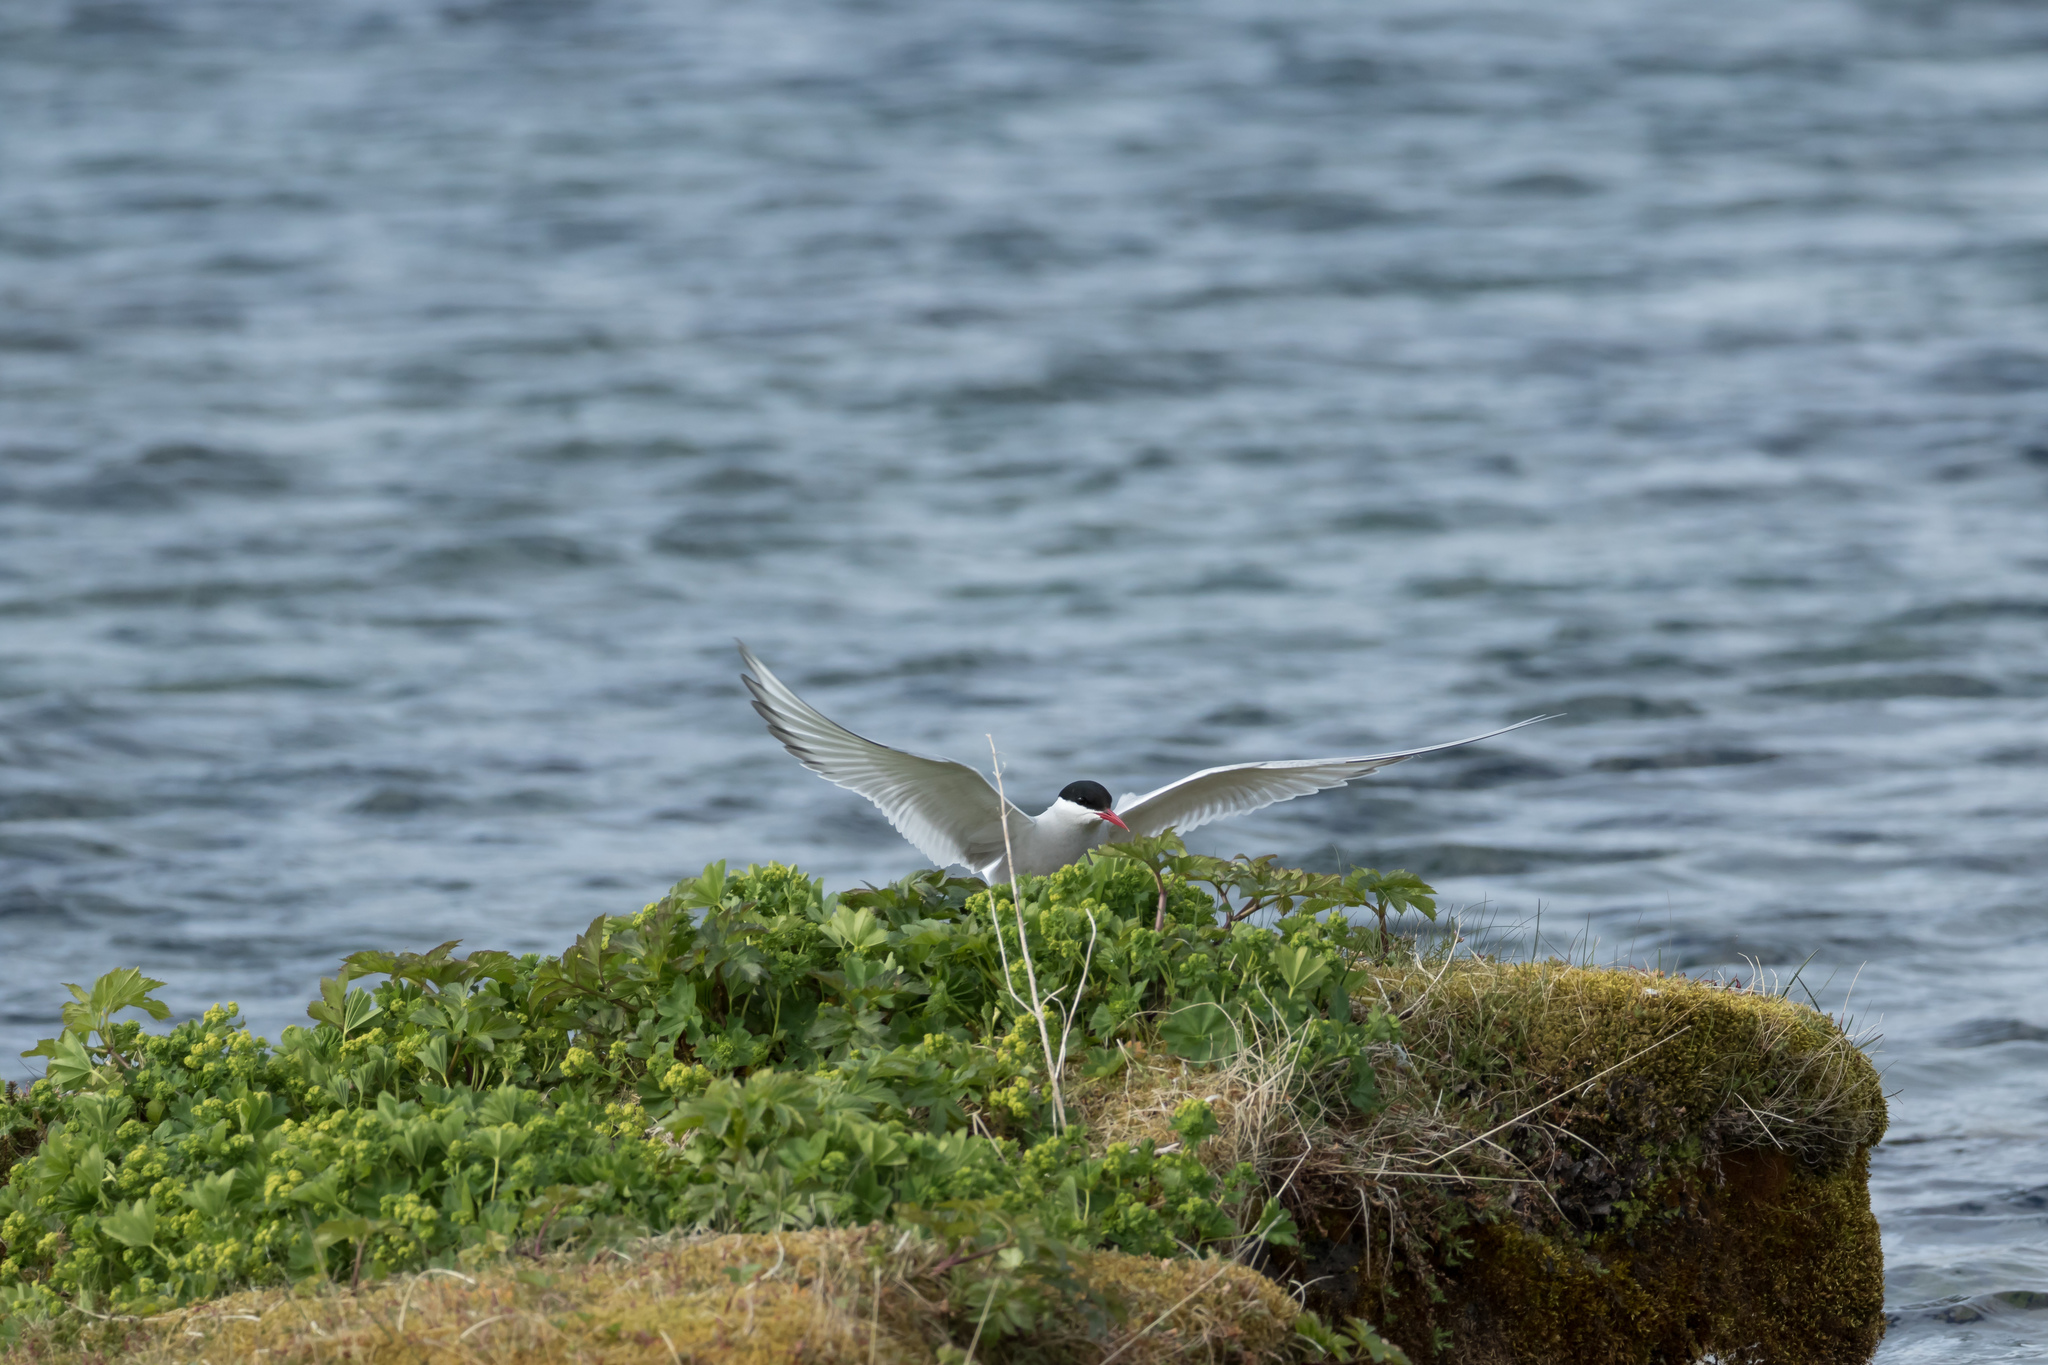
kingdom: Animalia
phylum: Chordata
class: Aves
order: Charadriiformes
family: Laridae
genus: Sterna
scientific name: Sterna paradisaea
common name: Arctic tern
